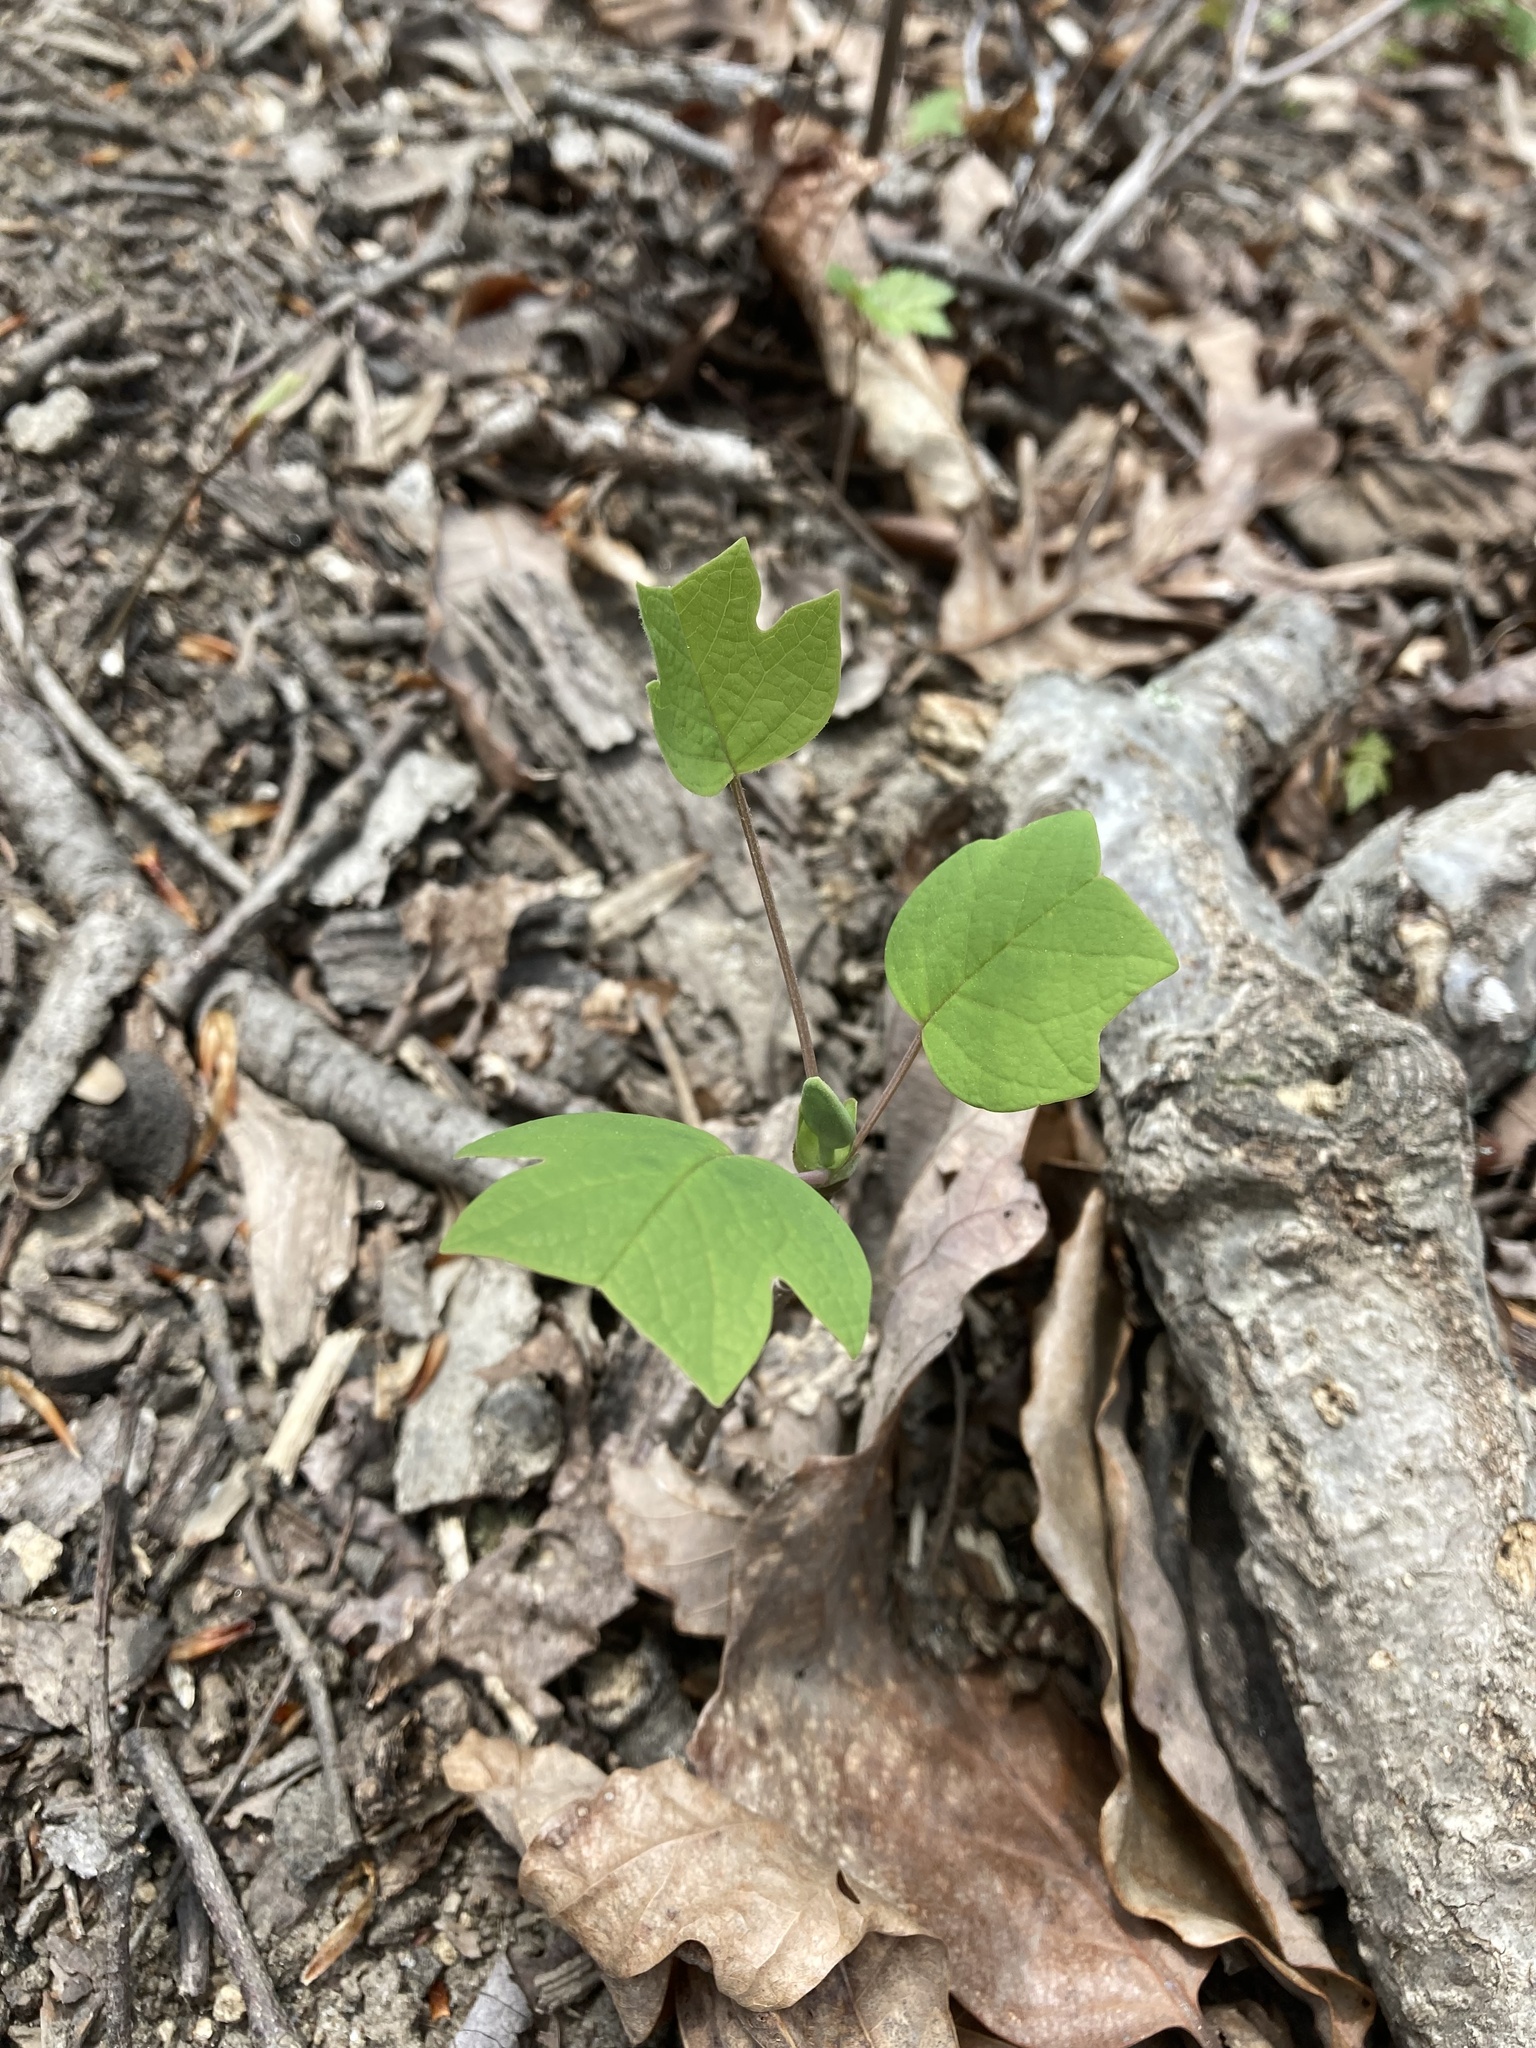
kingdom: Plantae
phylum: Tracheophyta
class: Magnoliopsida
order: Magnoliales
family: Magnoliaceae
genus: Liriodendron
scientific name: Liriodendron tulipifera
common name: Tulip tree
